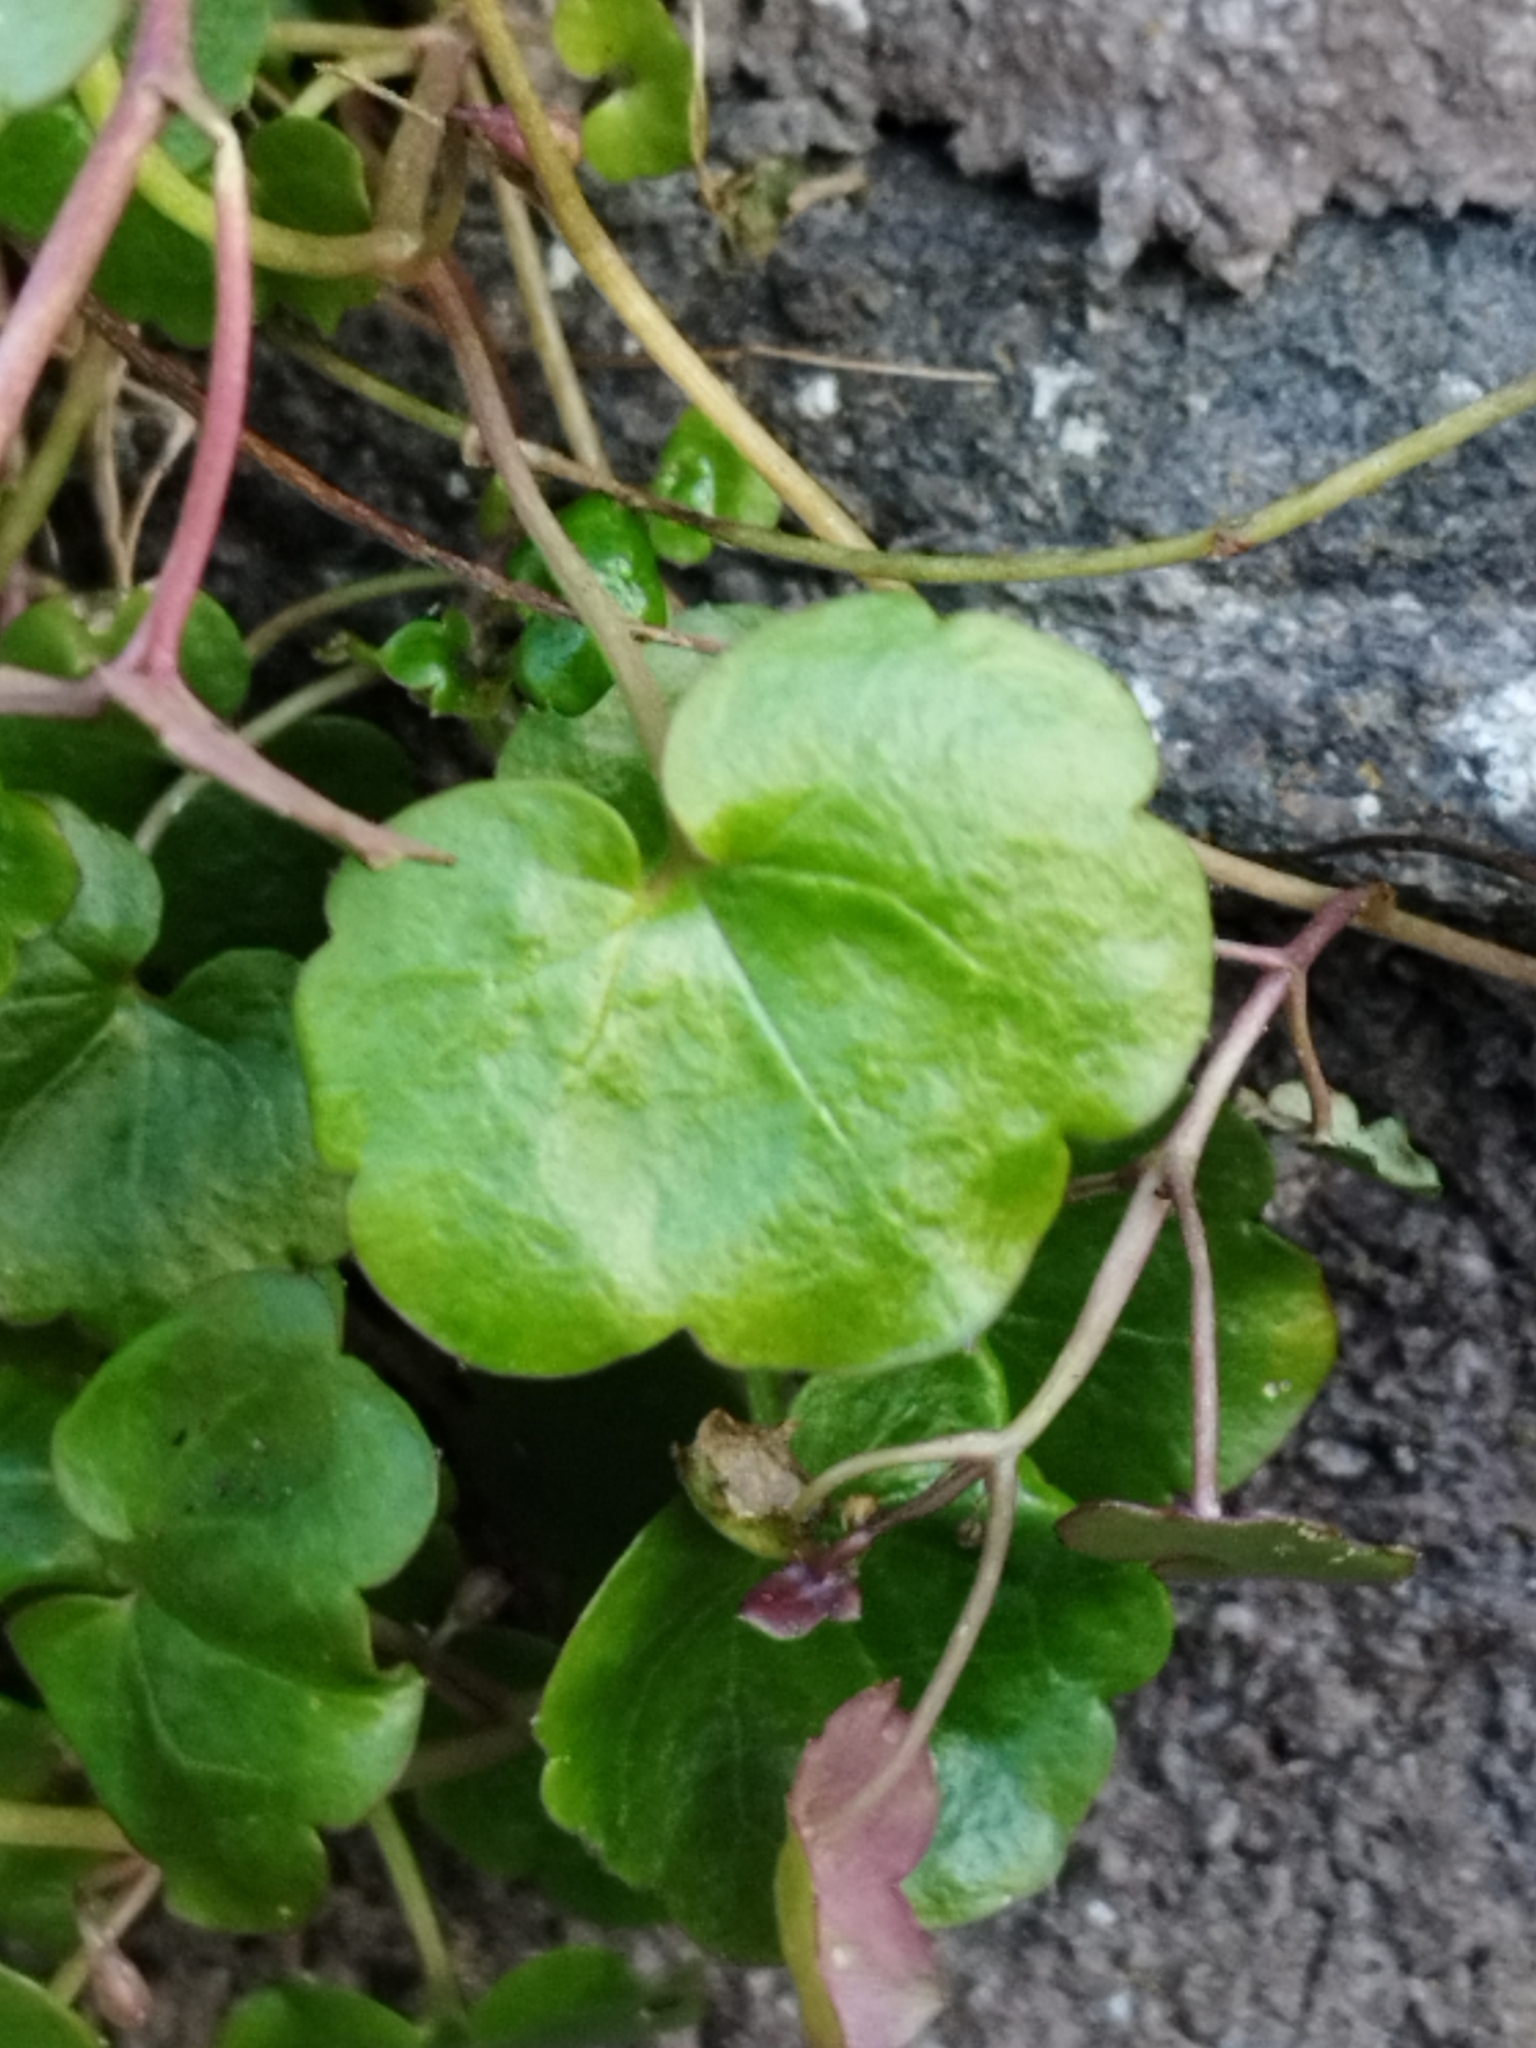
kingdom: Plantae
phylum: Tracheophyta
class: Magnoliopsida
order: Lamiales
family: Plantaginaceae
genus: Cymbalaria
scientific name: Cymbalaria muralis
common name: Ivy-leaved toadflax
